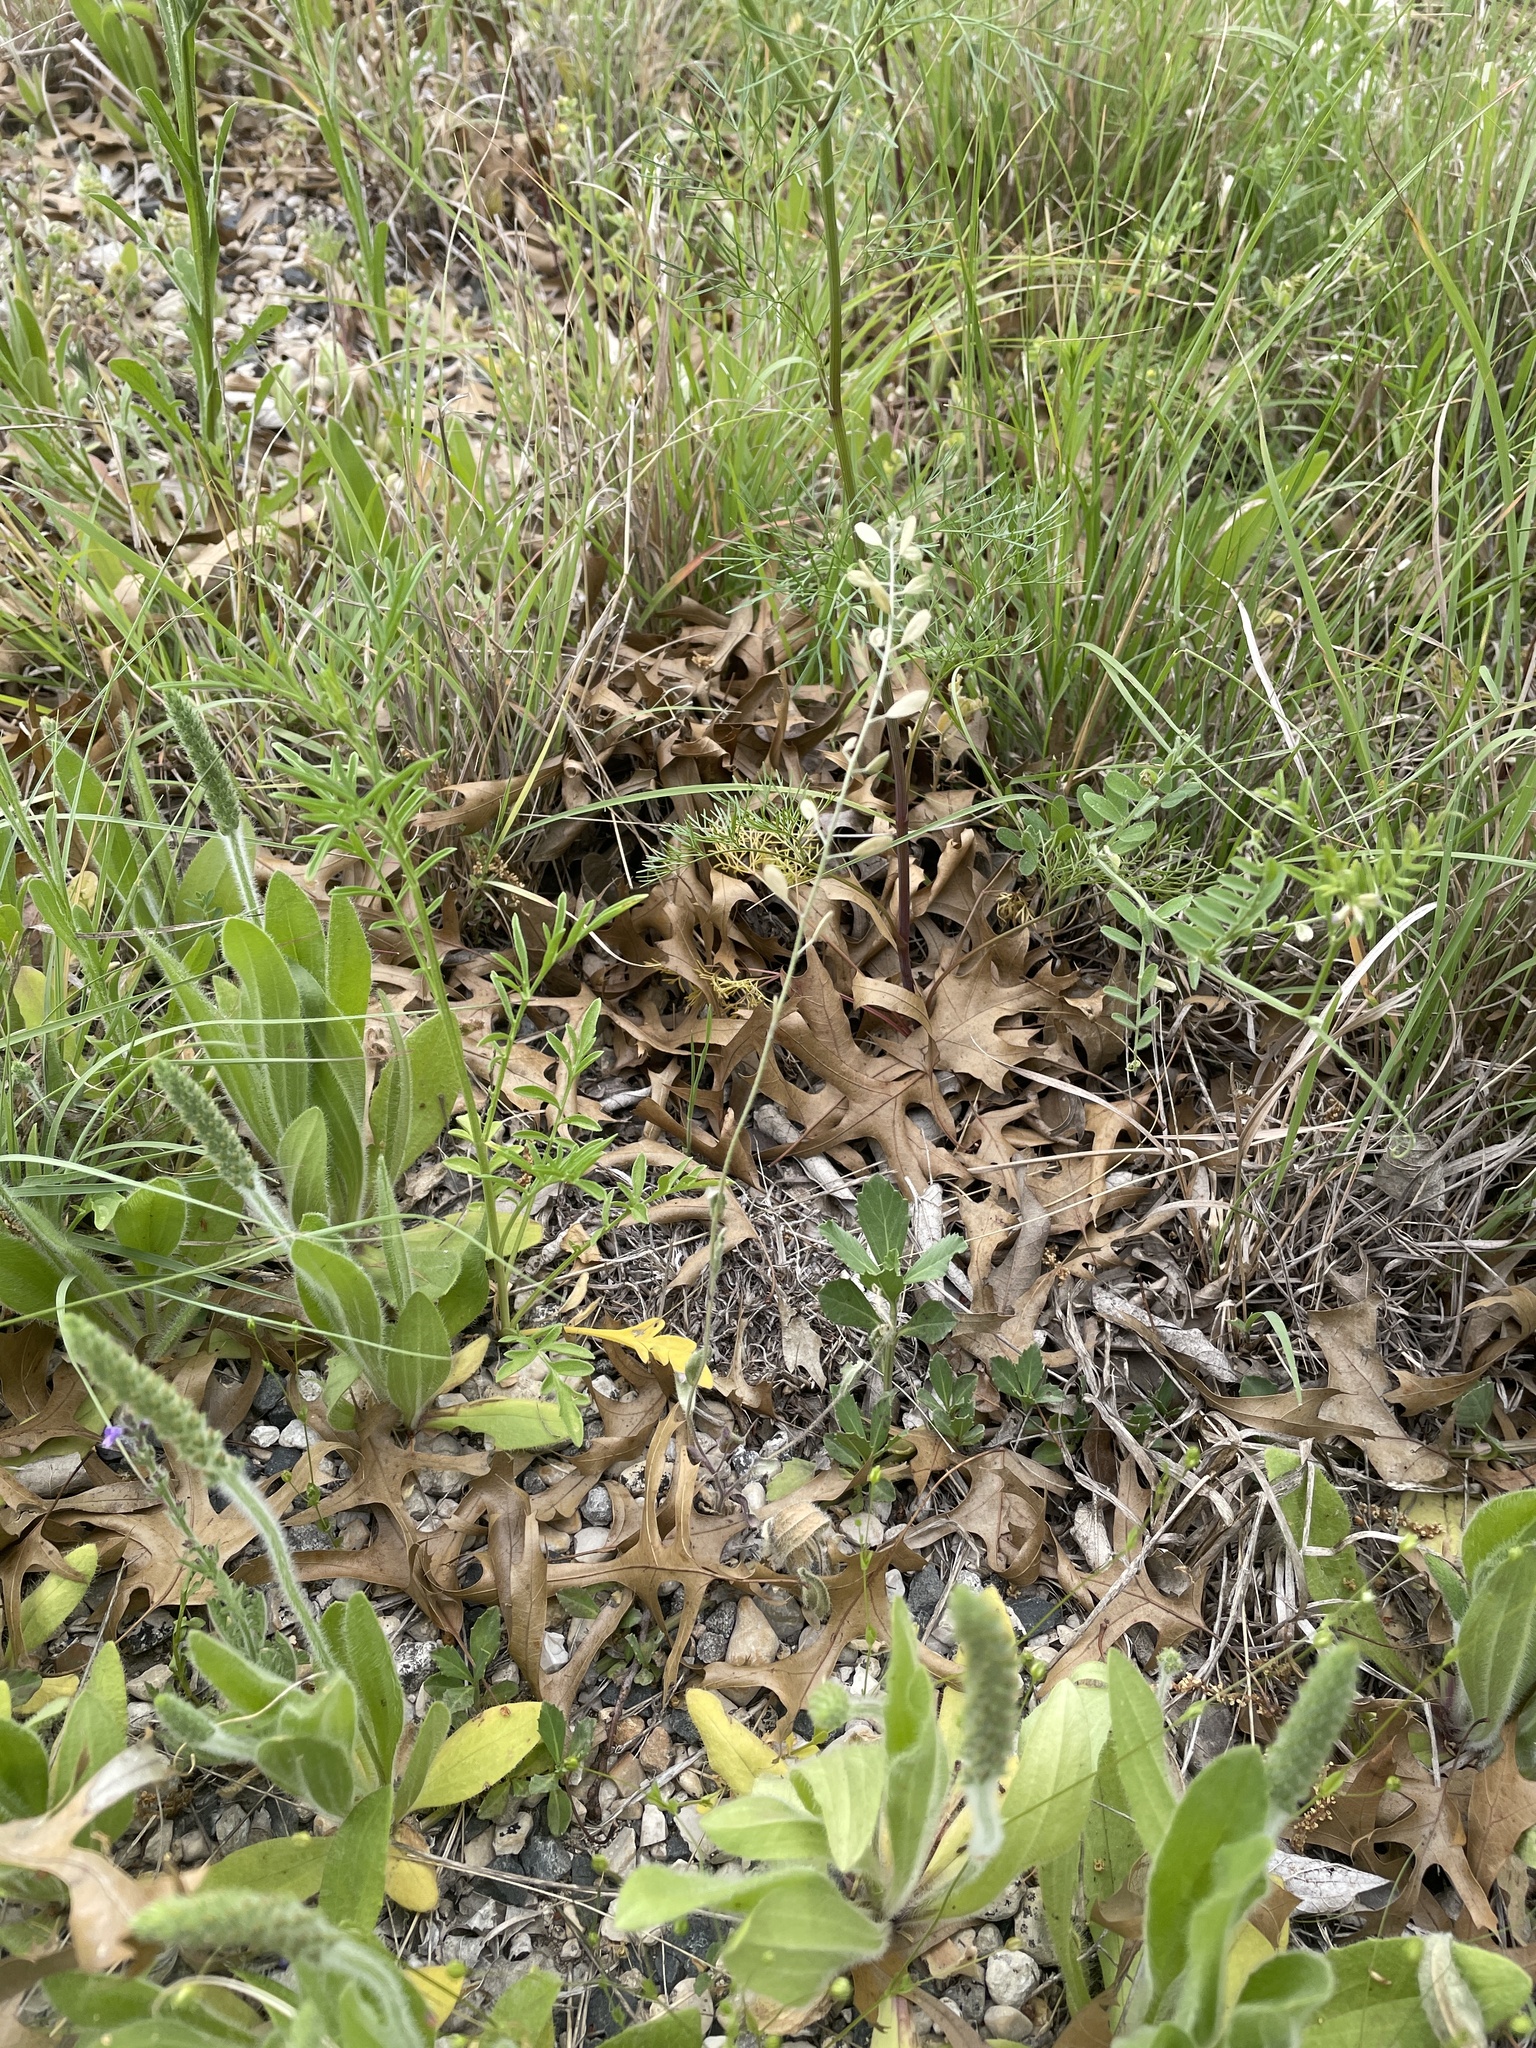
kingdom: Plantae
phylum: Tracheophyta
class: Magnoliopsida
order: Brassicales
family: Brassicaceae
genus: Tomostima
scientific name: Tomostima platycarpa
